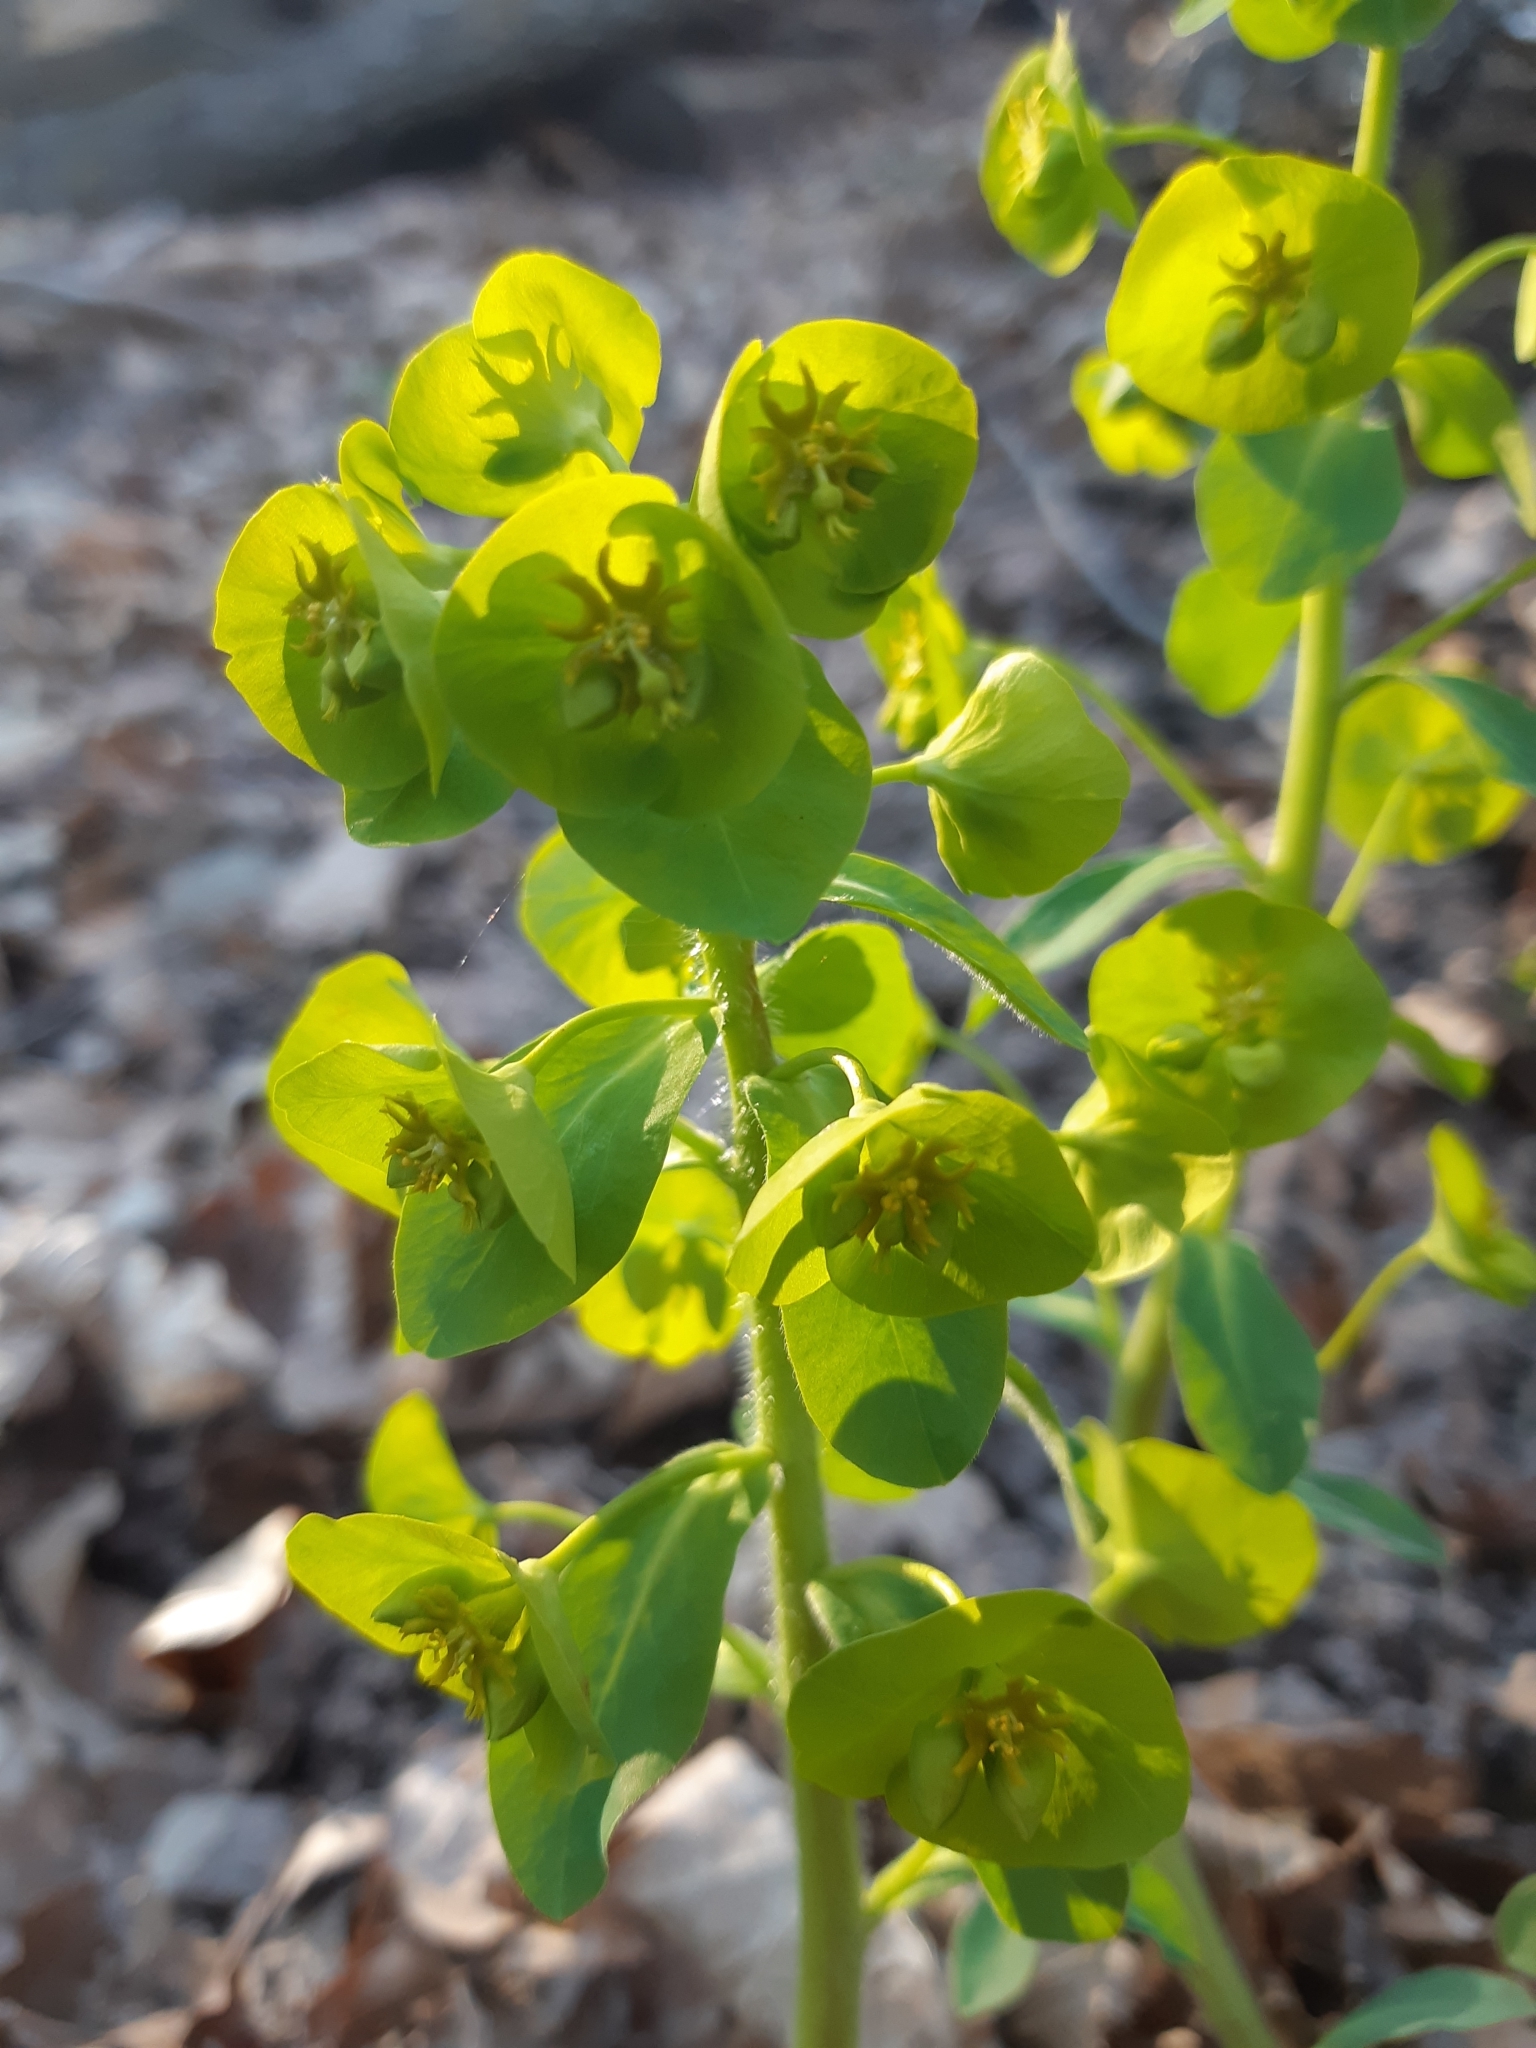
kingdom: Plantae
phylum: Tracheophyta
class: Magnoliopsida
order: Malpighiales
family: Euphorbiaceae
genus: Euphorbia
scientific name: Euphorbia amygdaloides
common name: Wood spurge
